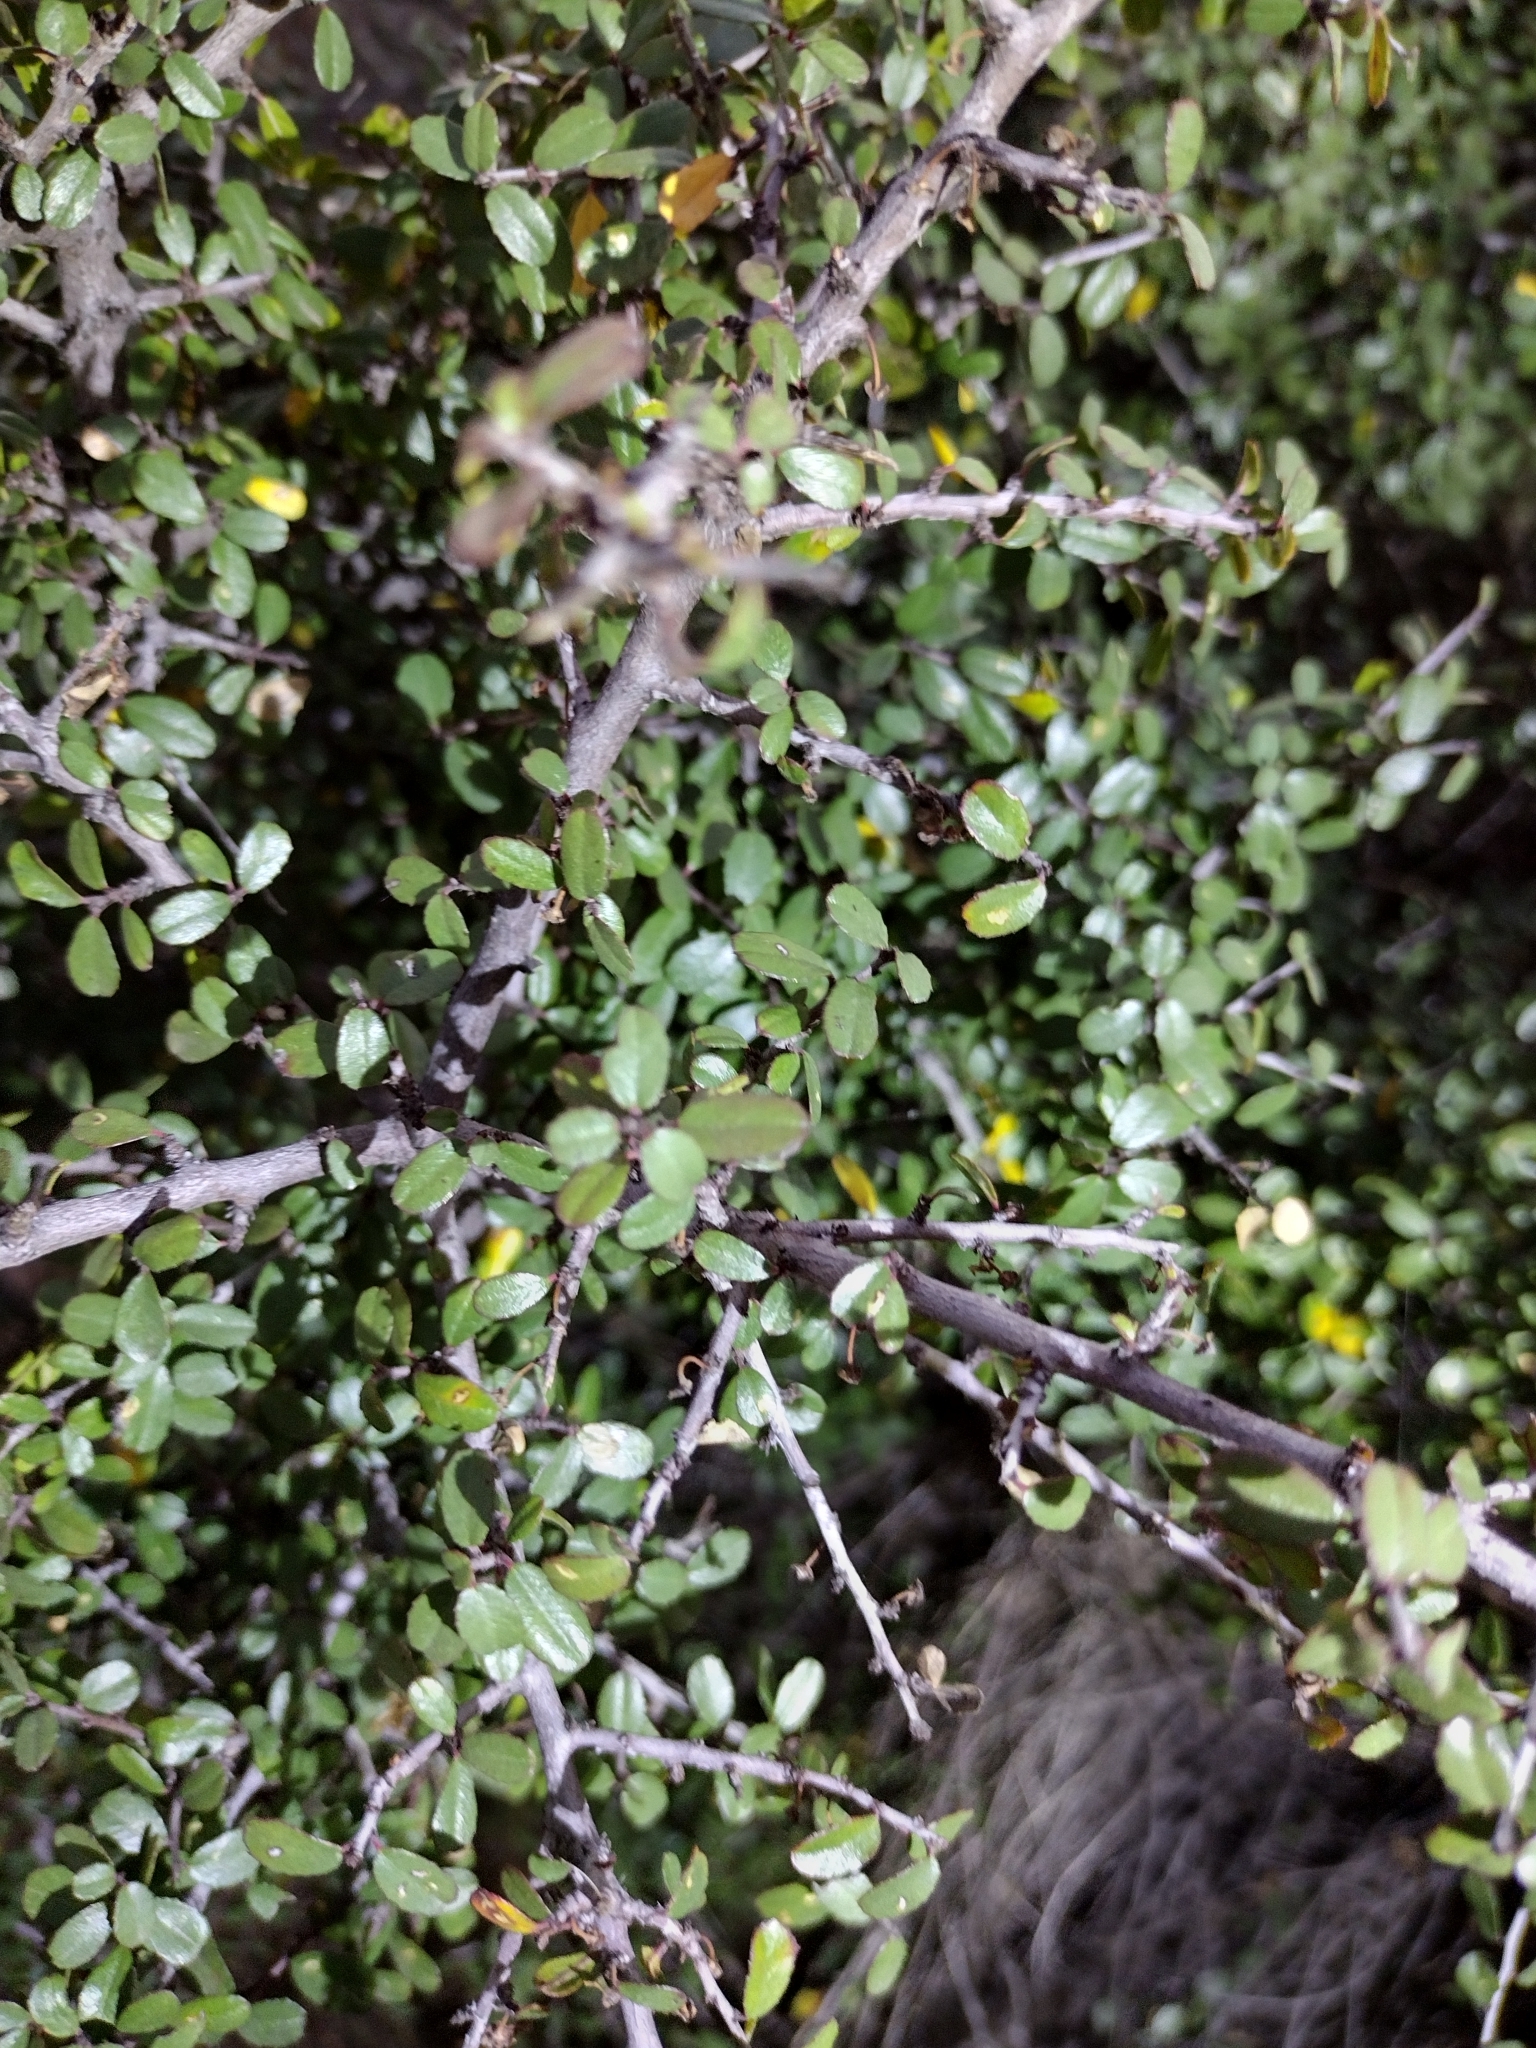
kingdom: Plantae
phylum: Tracheophyta
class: Magnoliopsida
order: Rosales
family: Rhamnaceae
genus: Endotropis
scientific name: Endotropis crocea
